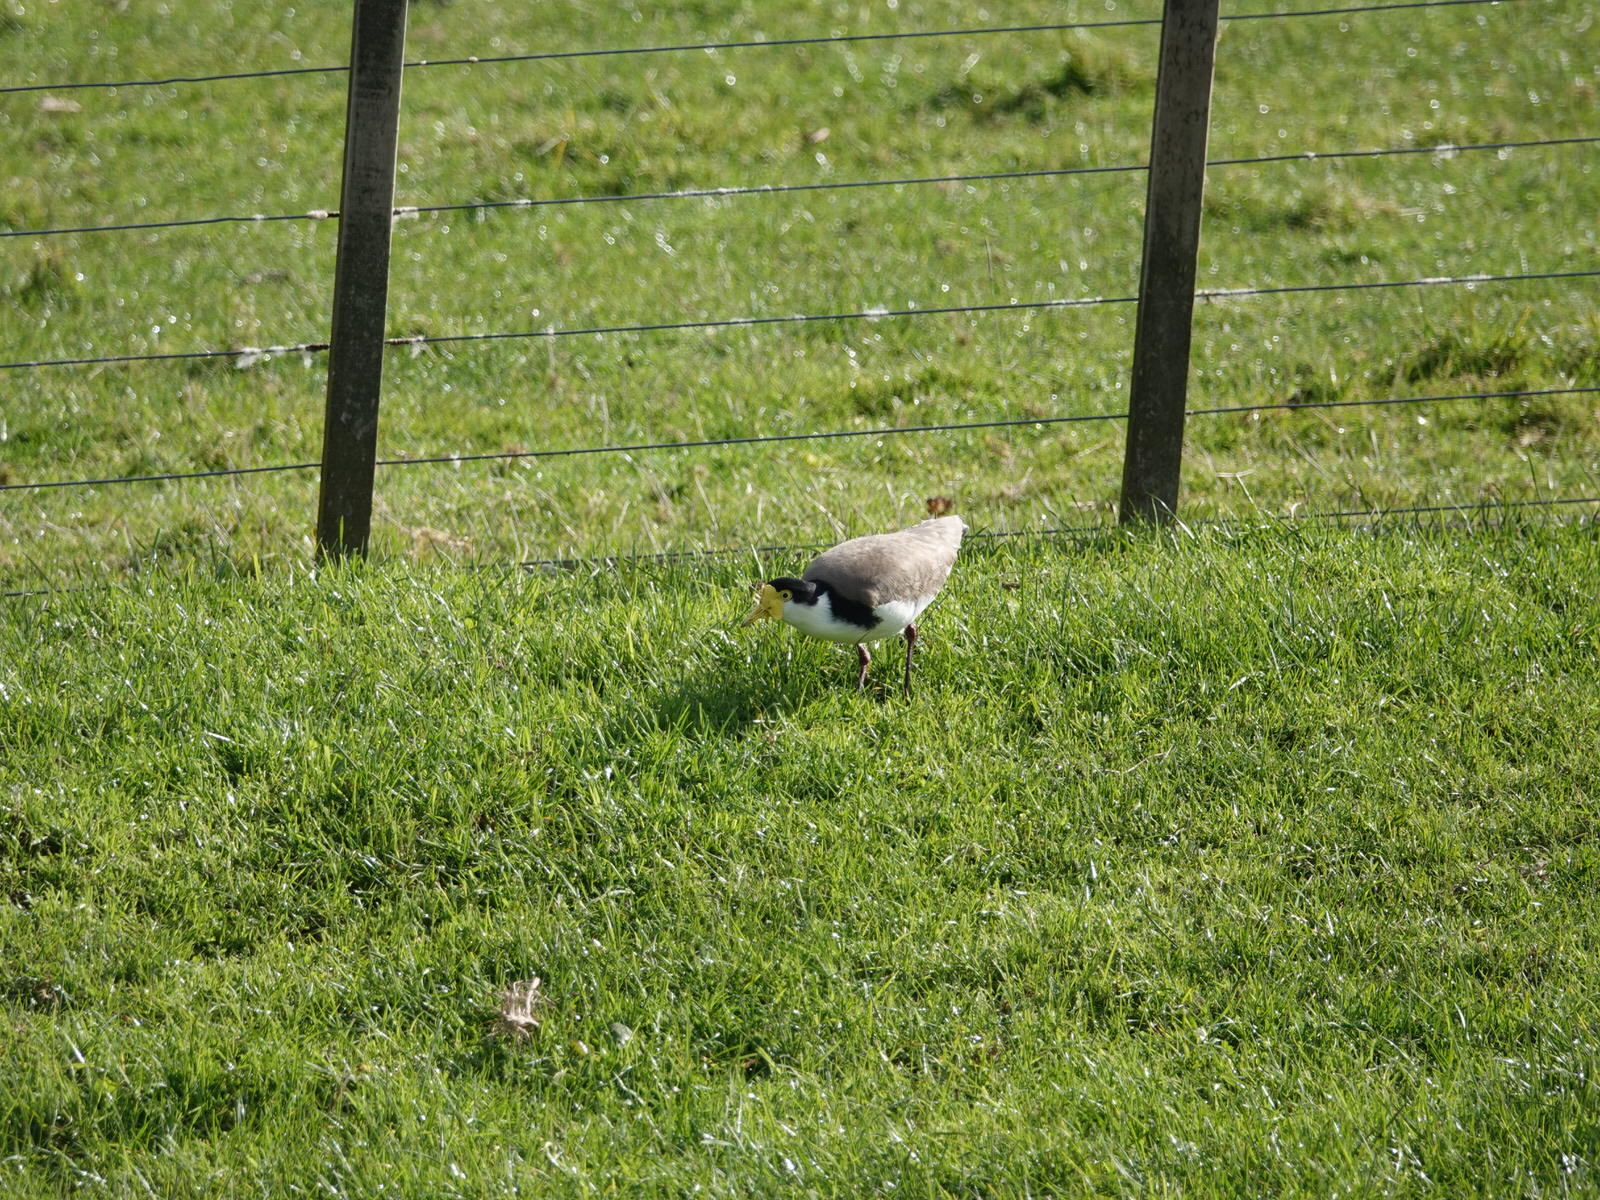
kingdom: Animalia
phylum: Chordata
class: Aves
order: Charadriiformes
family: Charadriidae
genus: Vanellus
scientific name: Vanellus miles
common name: Masked lapwing
